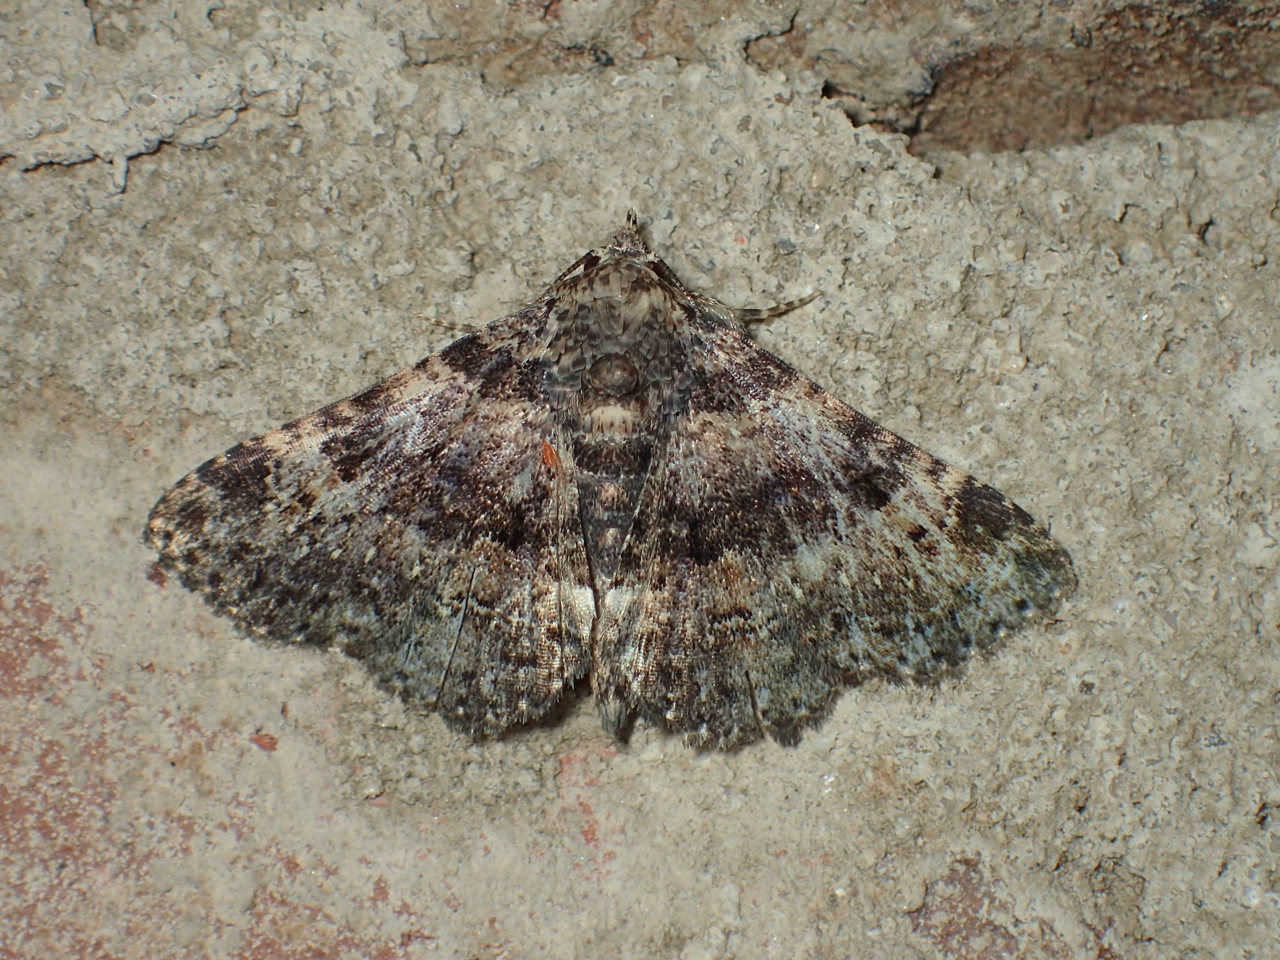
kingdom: Animalia
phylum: Arthropoda
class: Insecta
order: Lepidoptera
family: Erebidae
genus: Metalectra
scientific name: Metalectra discalis
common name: Common fungus moth
